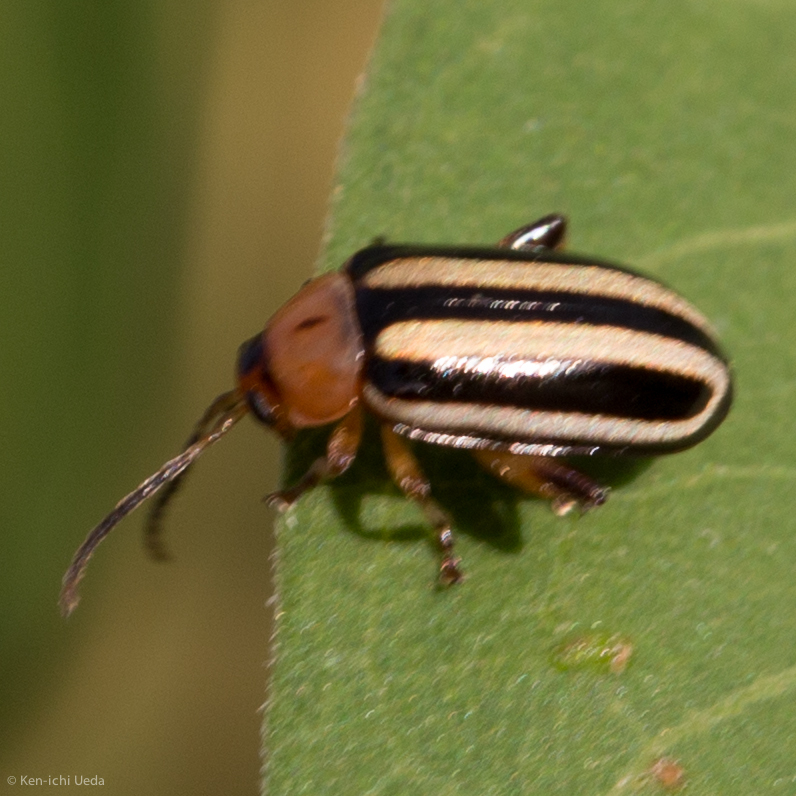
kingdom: Animalia
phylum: Arthropoda
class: Insecta
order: Coleoptera
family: Chrysomelidae
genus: Disonycha
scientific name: Disonycha glabrata
